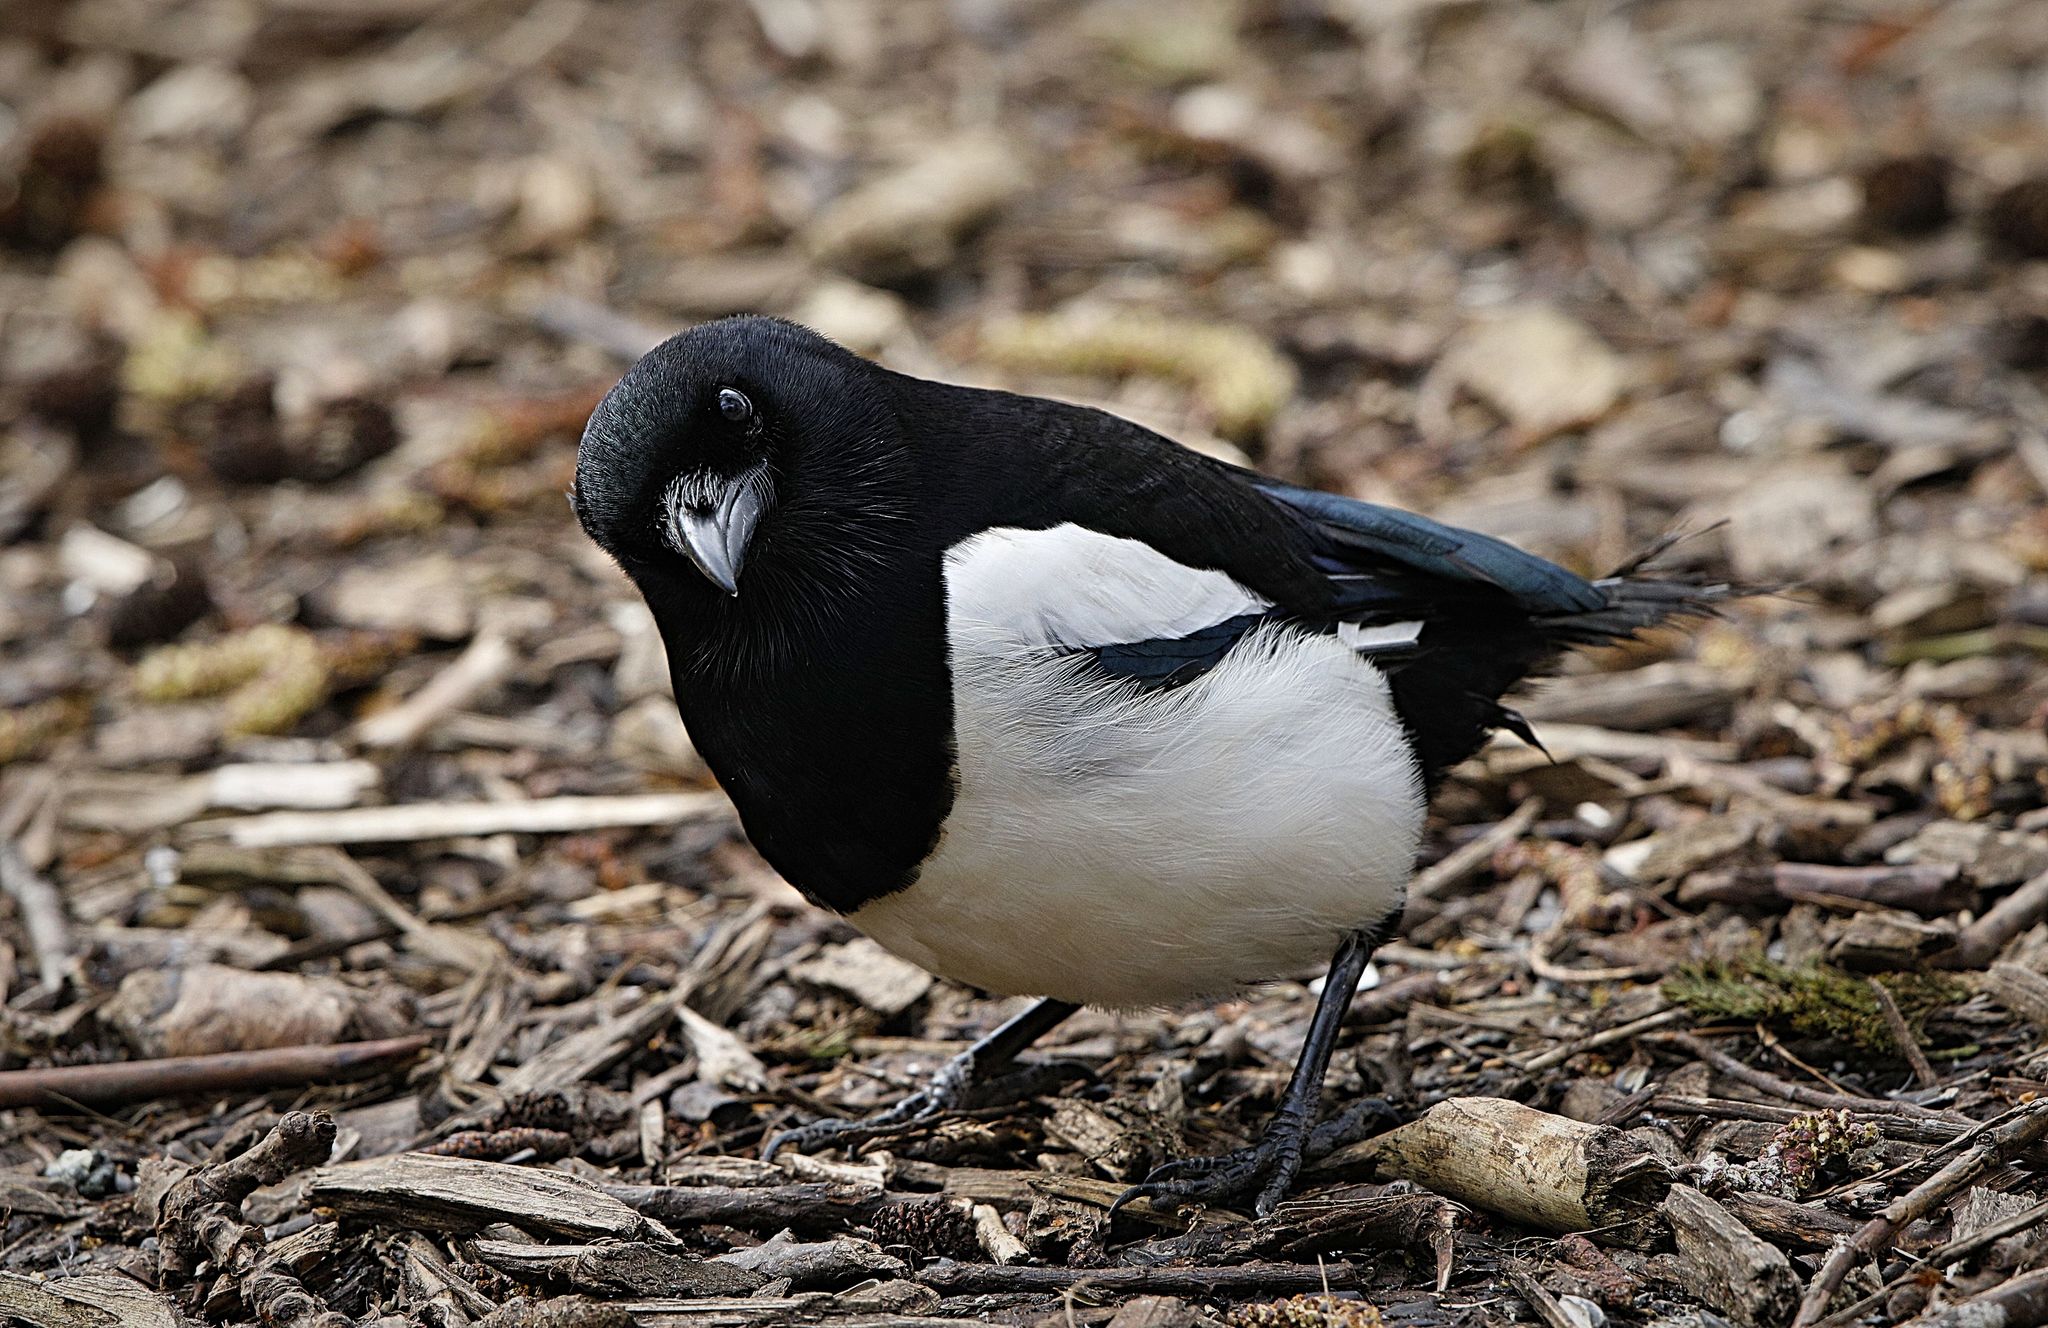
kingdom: Animalia
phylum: Chordata
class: Aves
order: Passeriformes
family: Corvidae
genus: Pica
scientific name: Pica pica
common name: Eurasian magpie
